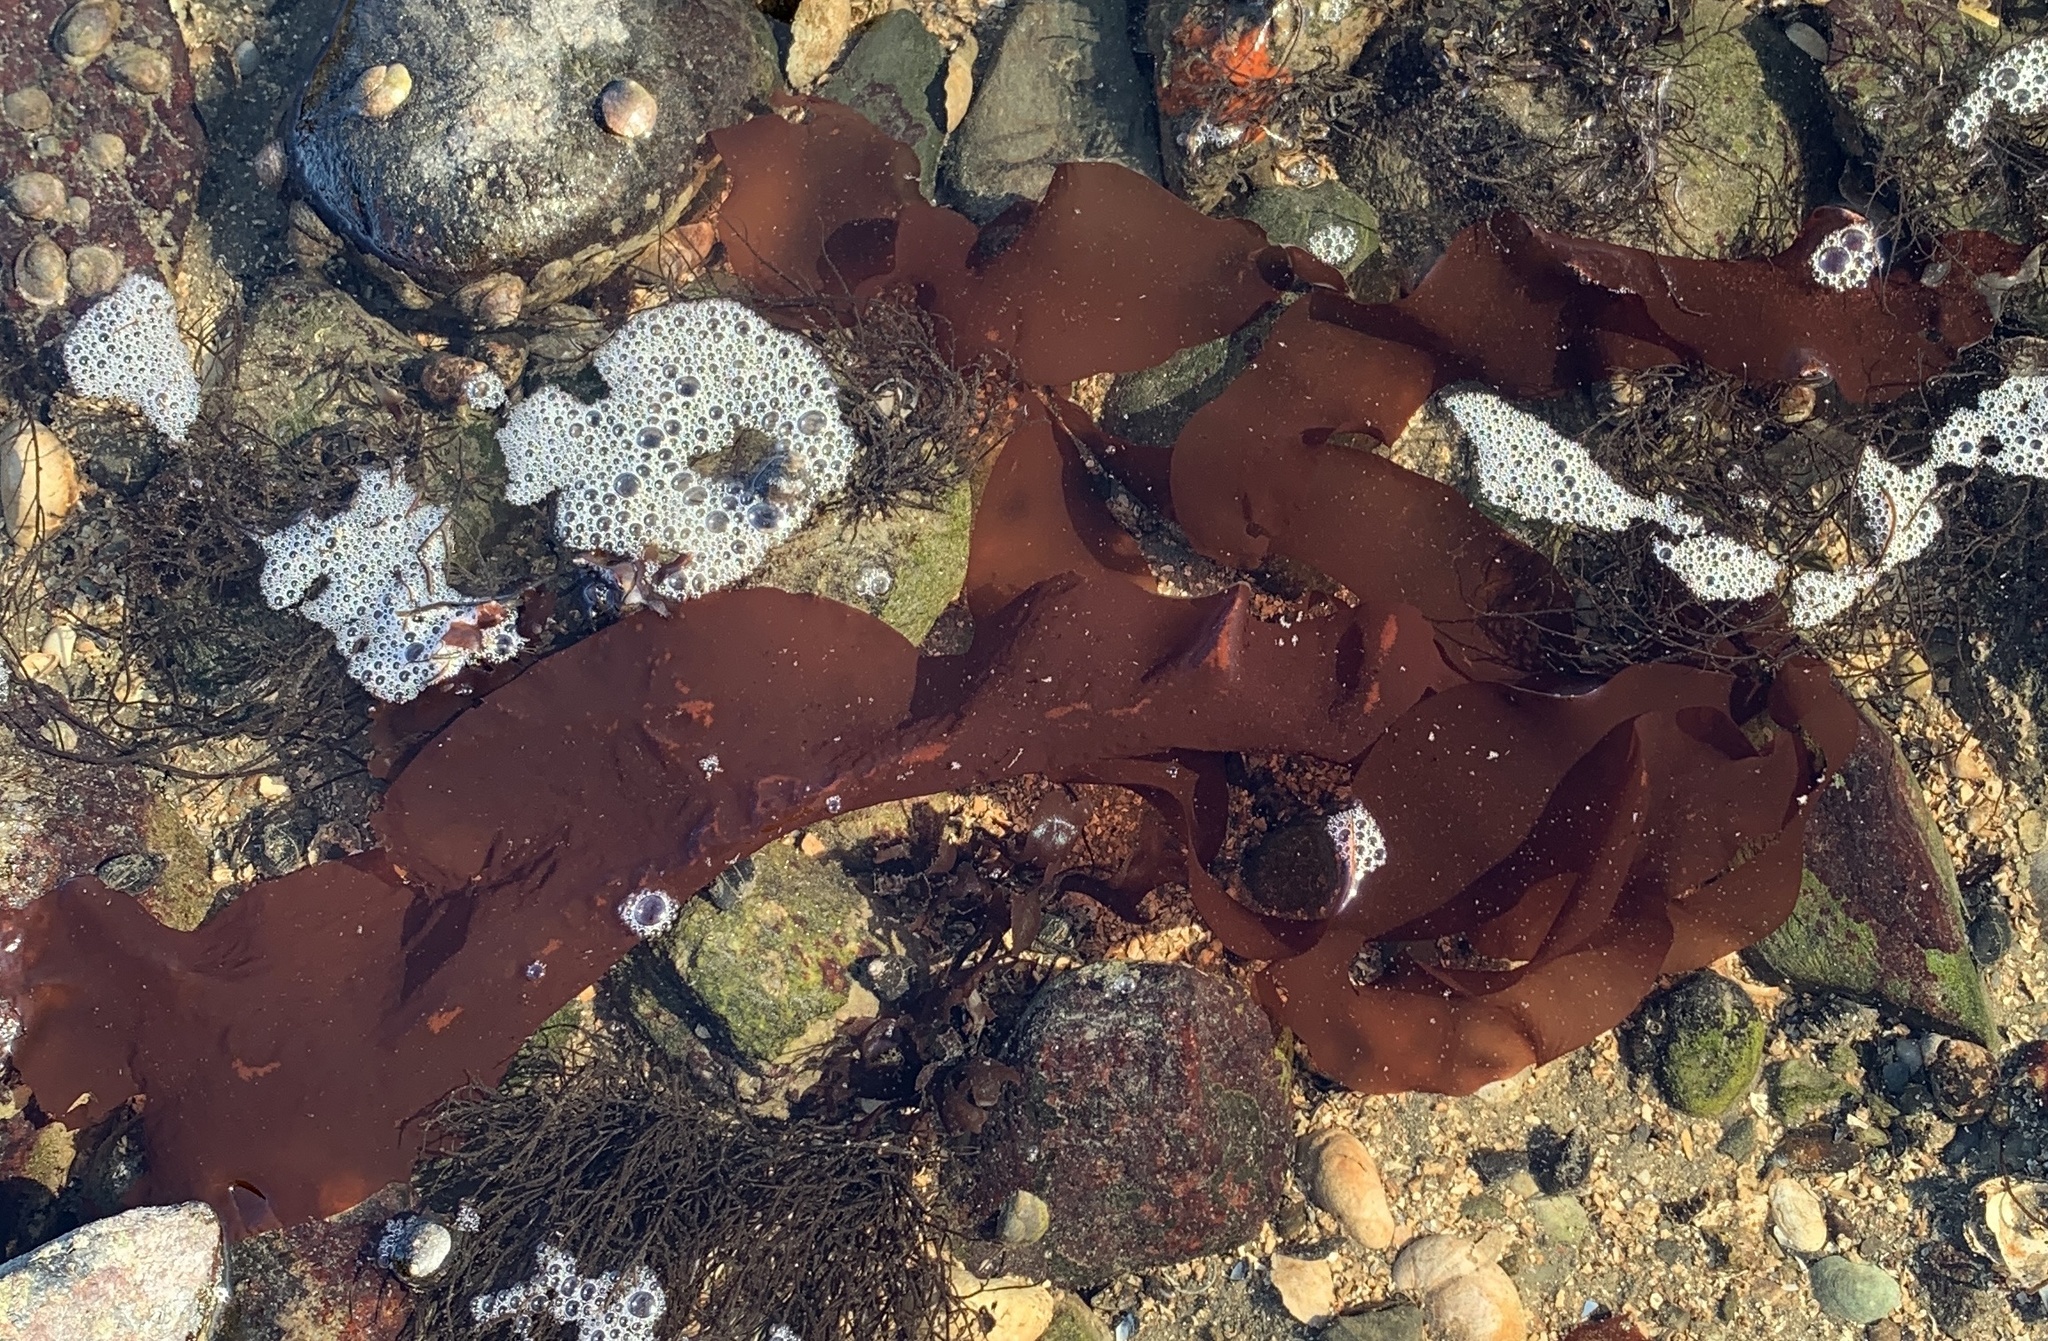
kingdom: Plantae
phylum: Rhodophyta
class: Florideophyceae
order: Palmariales
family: Palmariaceae
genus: Palmaria
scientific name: Palmaria palmata
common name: Dulse
